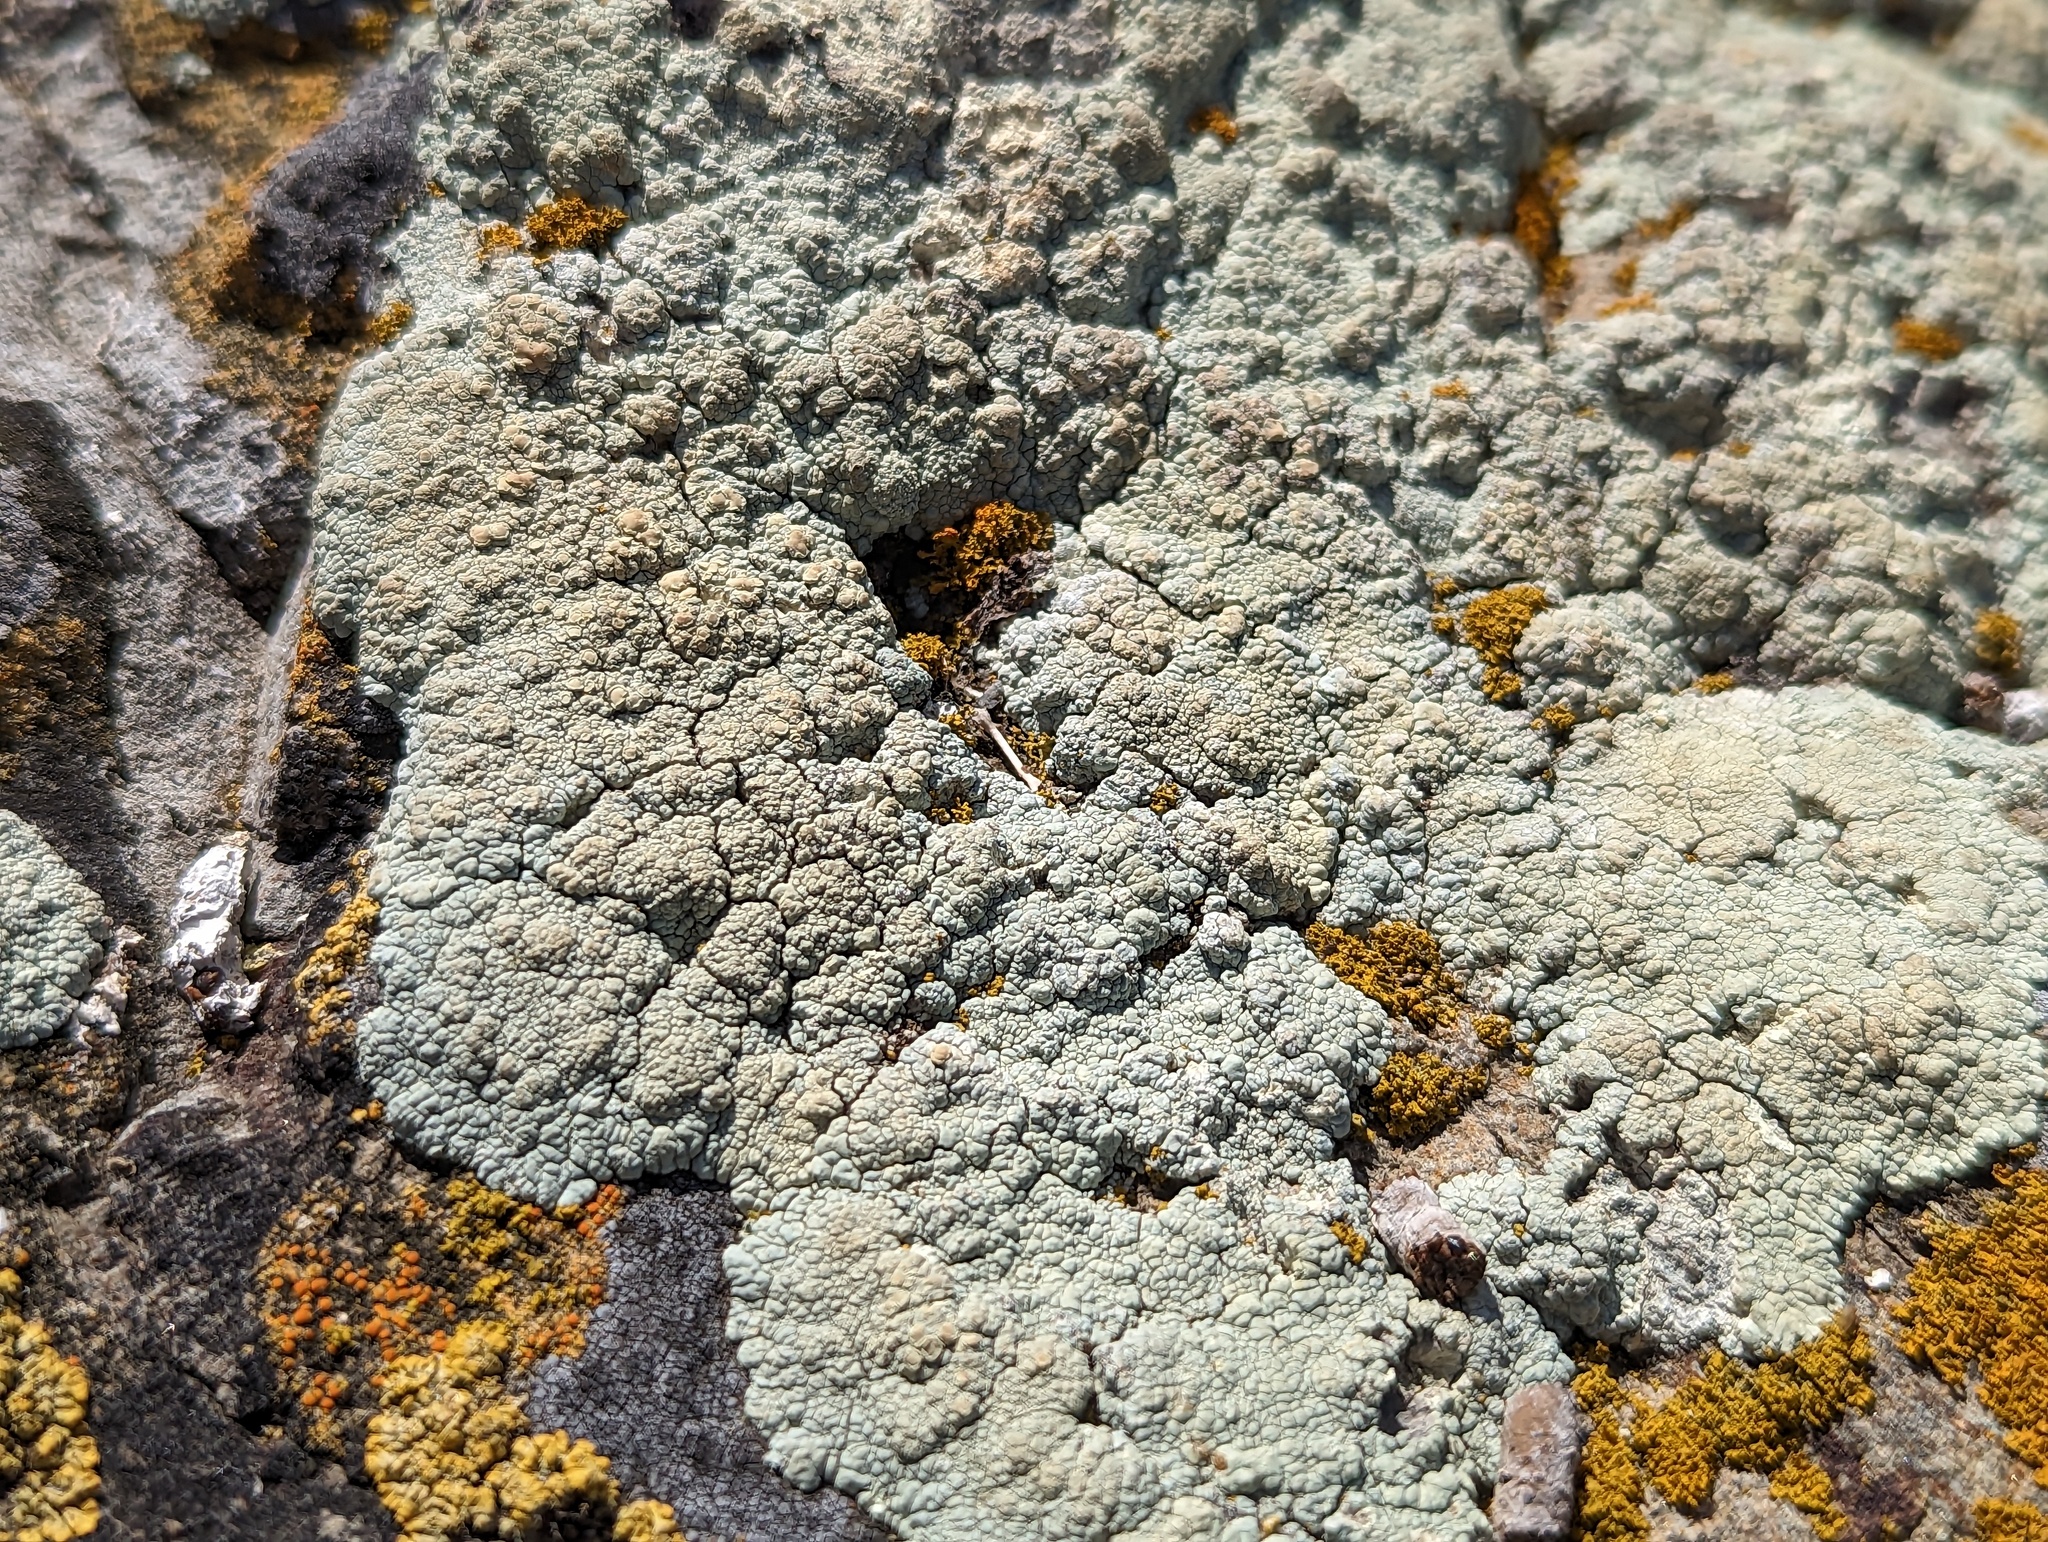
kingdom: Fungi
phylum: Ascomycota
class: Lecanoromycetes
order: Lecanorales
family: Lecanoraceae
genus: Protoparmeliopsis
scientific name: Protoparmeliopsis pinguis
